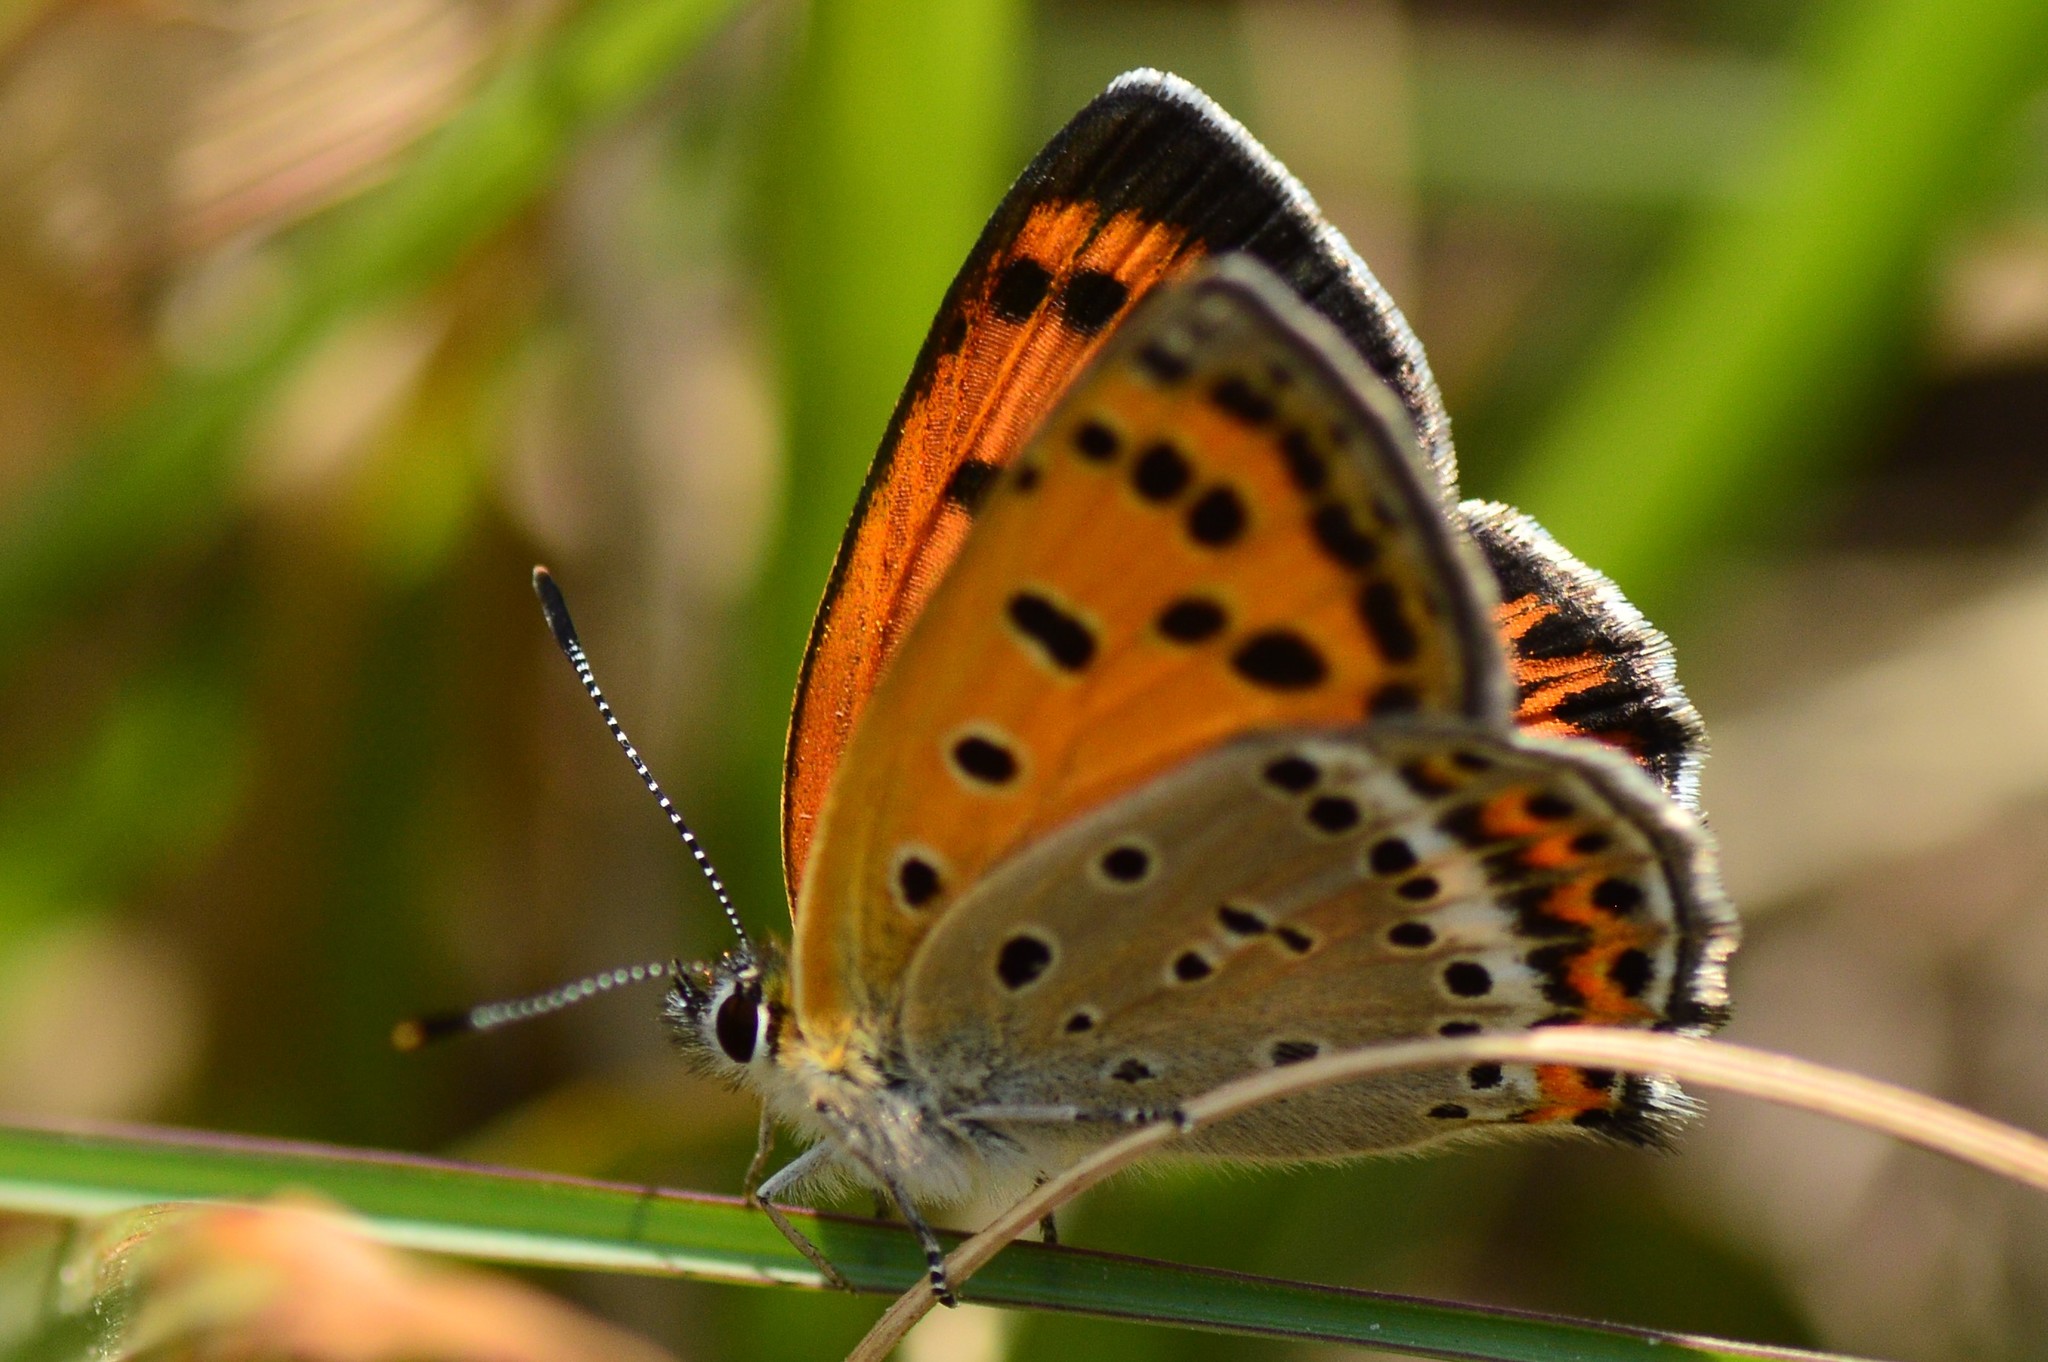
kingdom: Animalia
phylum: Arthropoda
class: Insecta
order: Lepidoptera
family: Lycaenidae
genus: Lycaena
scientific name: Lycaena panava
